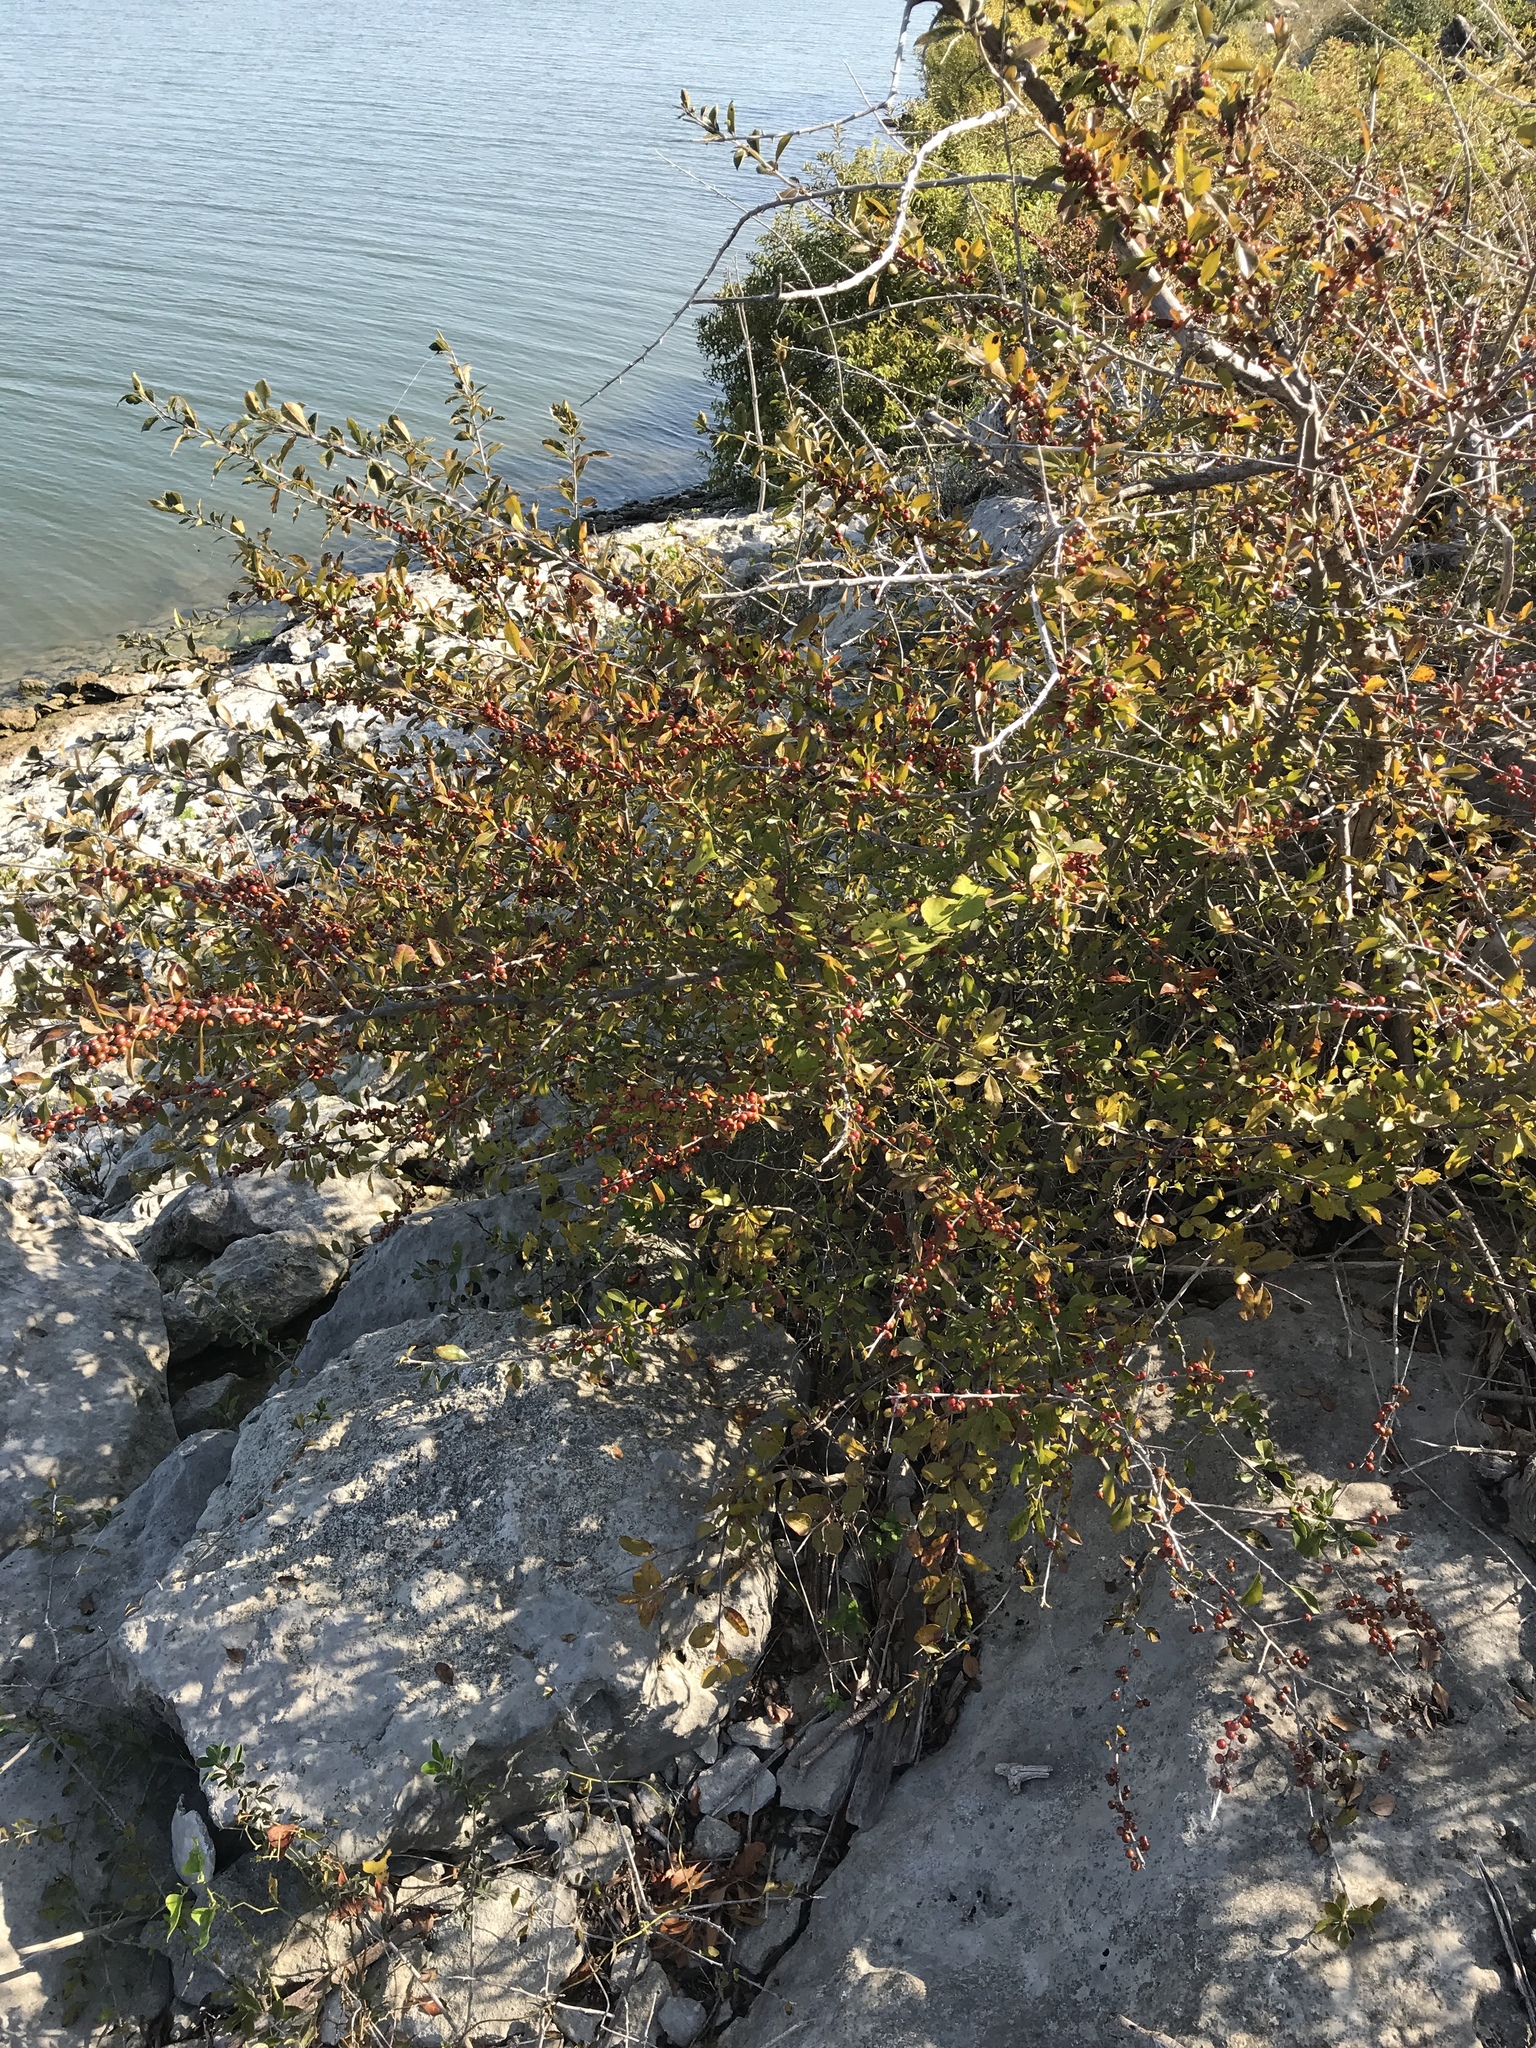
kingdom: Plantae
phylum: Tracheophyta
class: Magnoliopsida
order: Aquifoliales
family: Aquifoliaceae
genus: Ilex
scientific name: Ilex decidua
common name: Possum-haw
